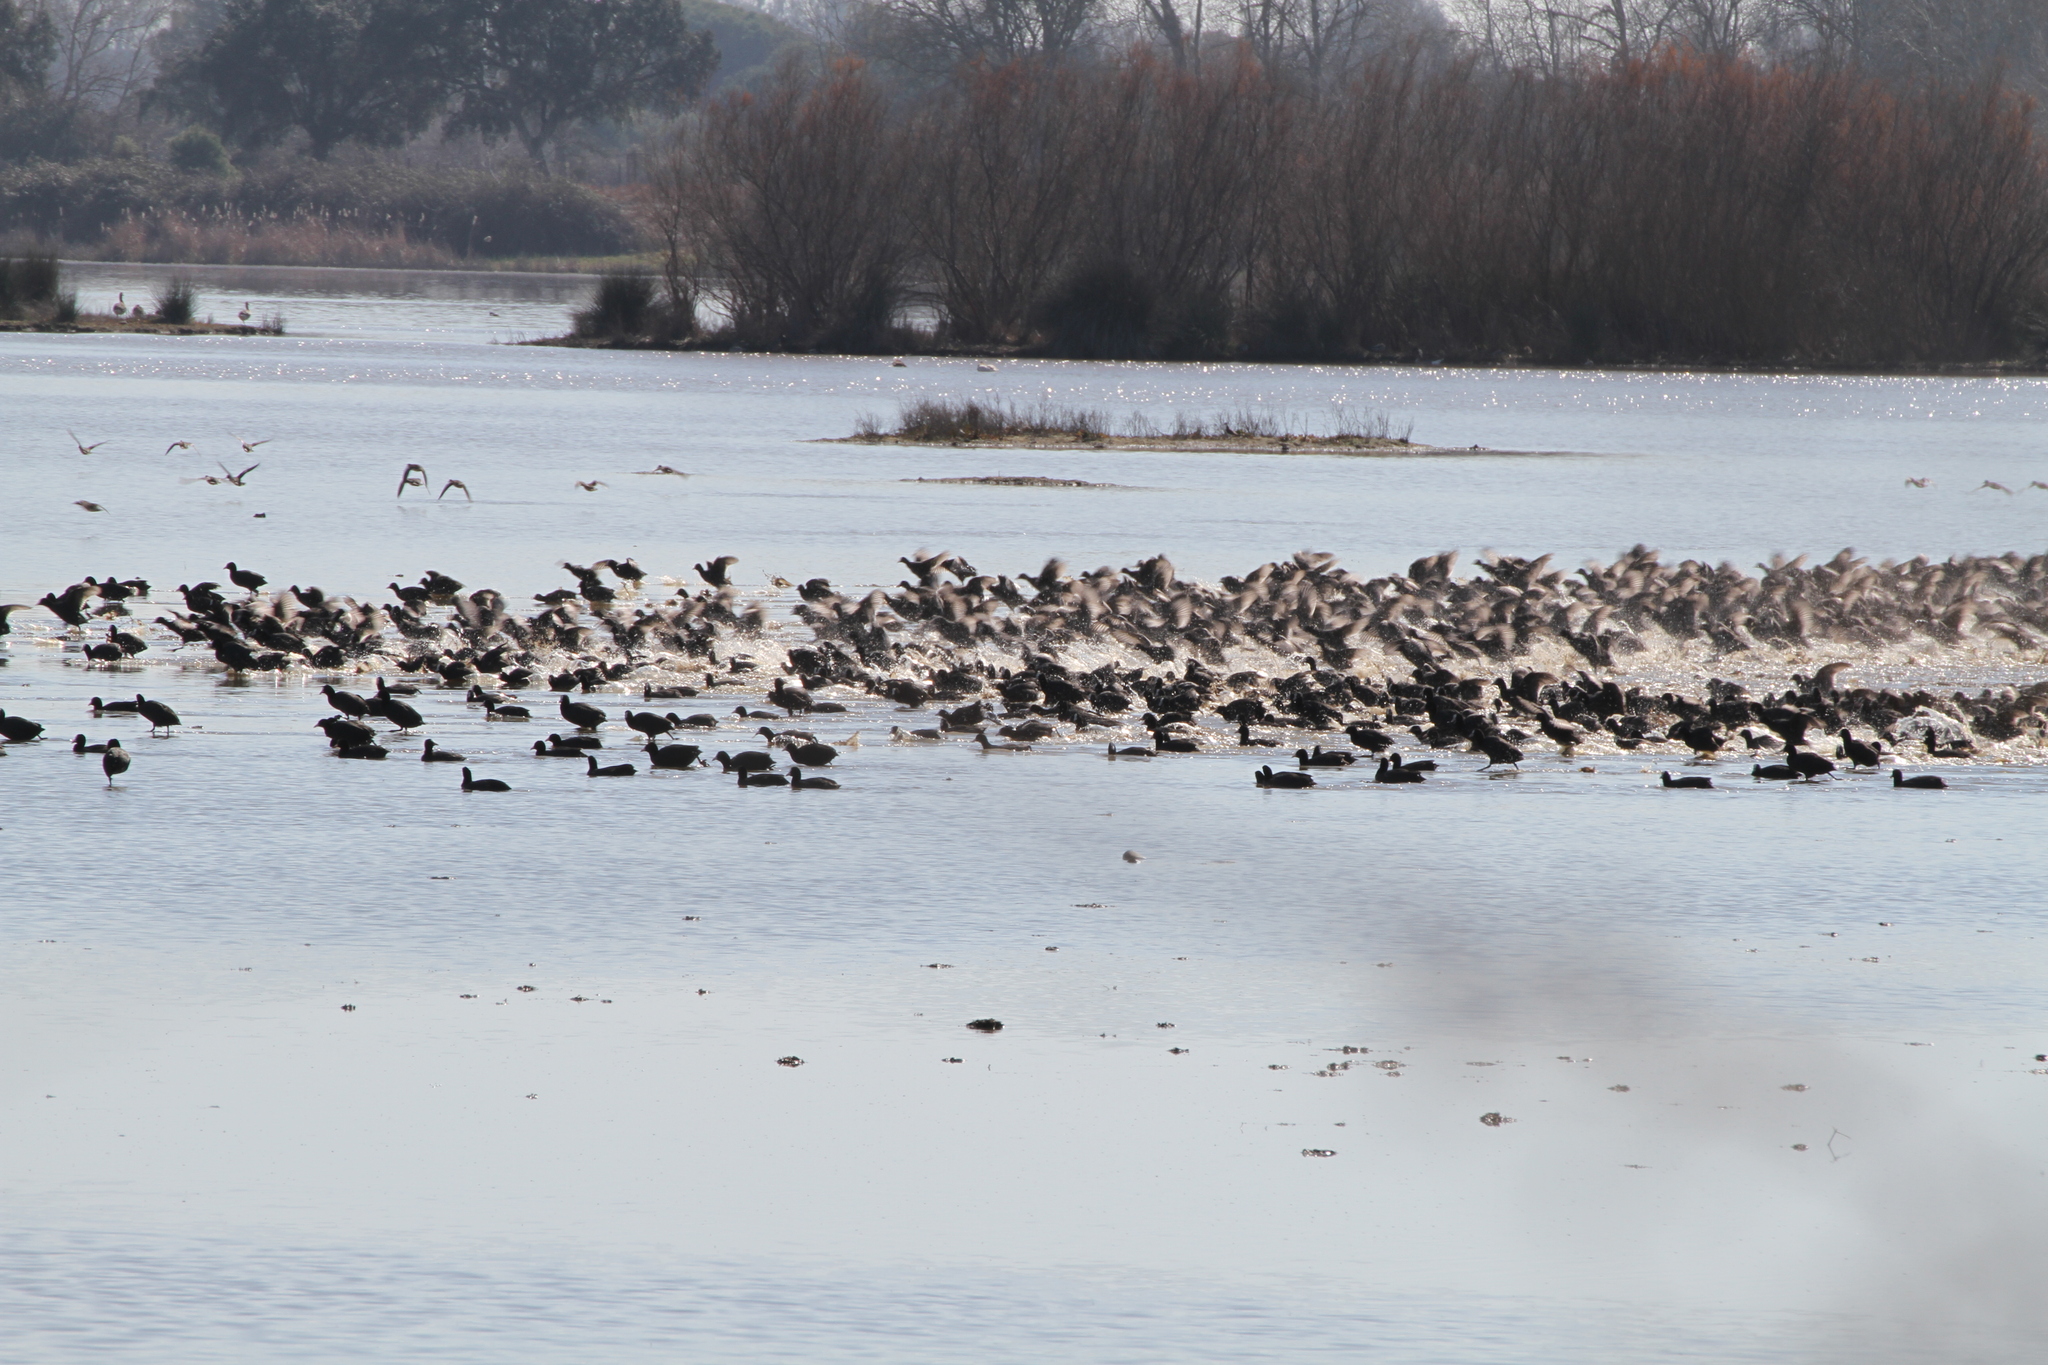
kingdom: Animalia
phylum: Chordata
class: Aves
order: Gruiformes
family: Rallidae
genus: Fulica
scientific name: Fulica atra
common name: Eurasian coot
